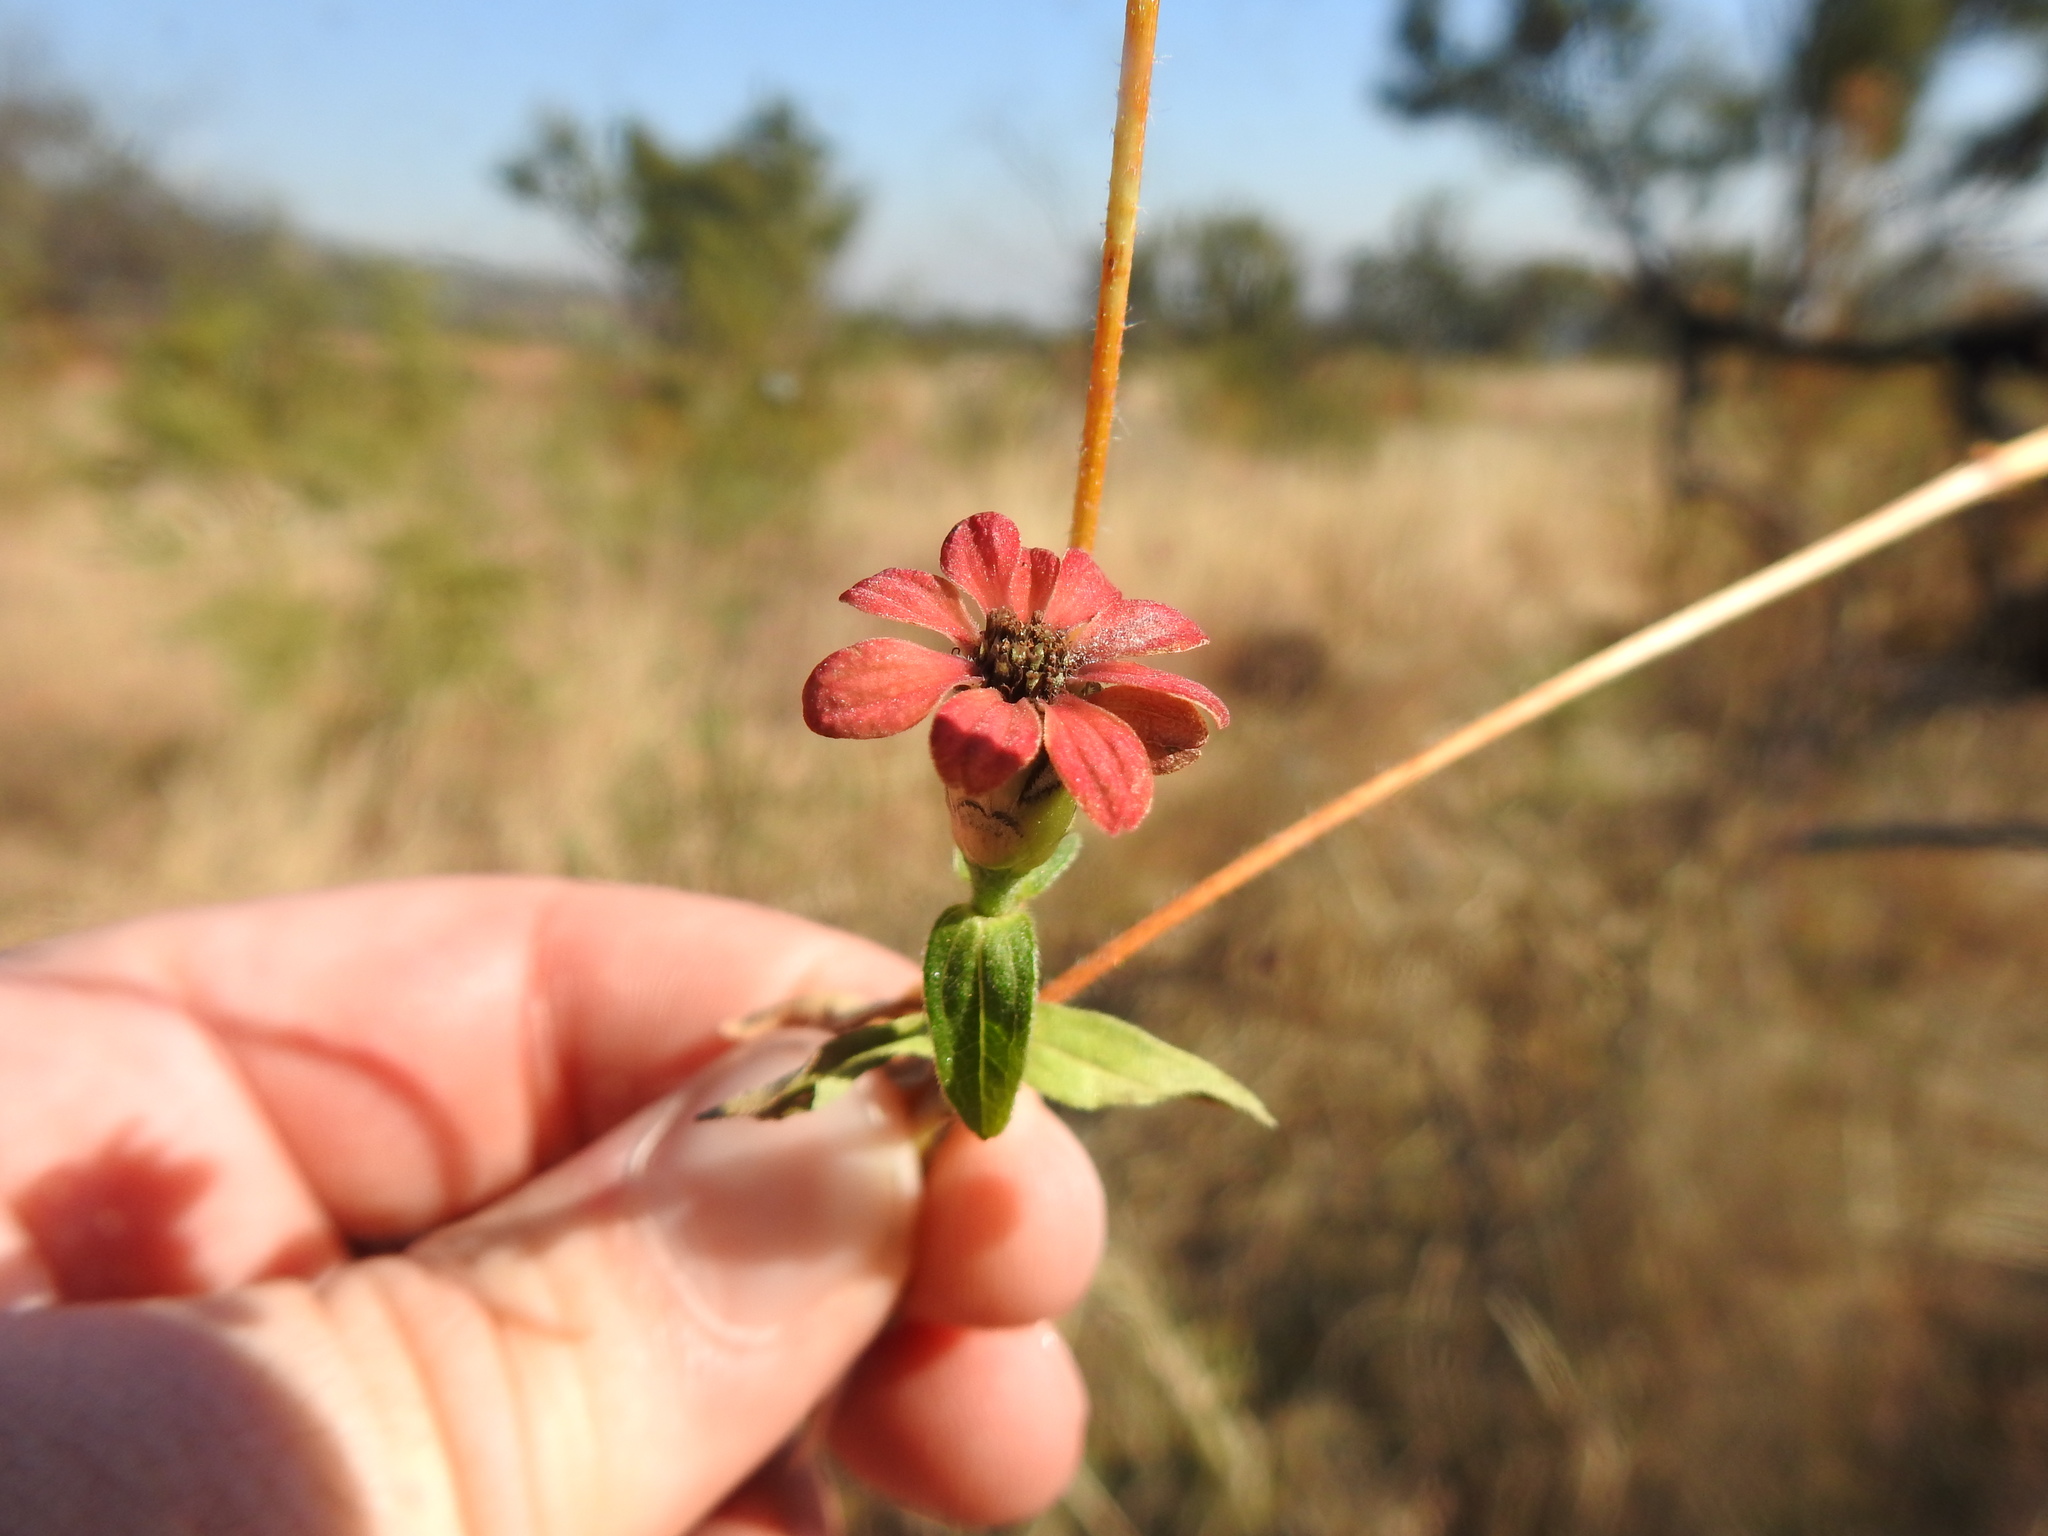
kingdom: Plantae
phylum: Tracheophyta
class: Magnoliopsida
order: Asterales
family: Asteraceae
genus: Zinnia
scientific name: Zinnia peruviana
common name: Peruvian zinnia
